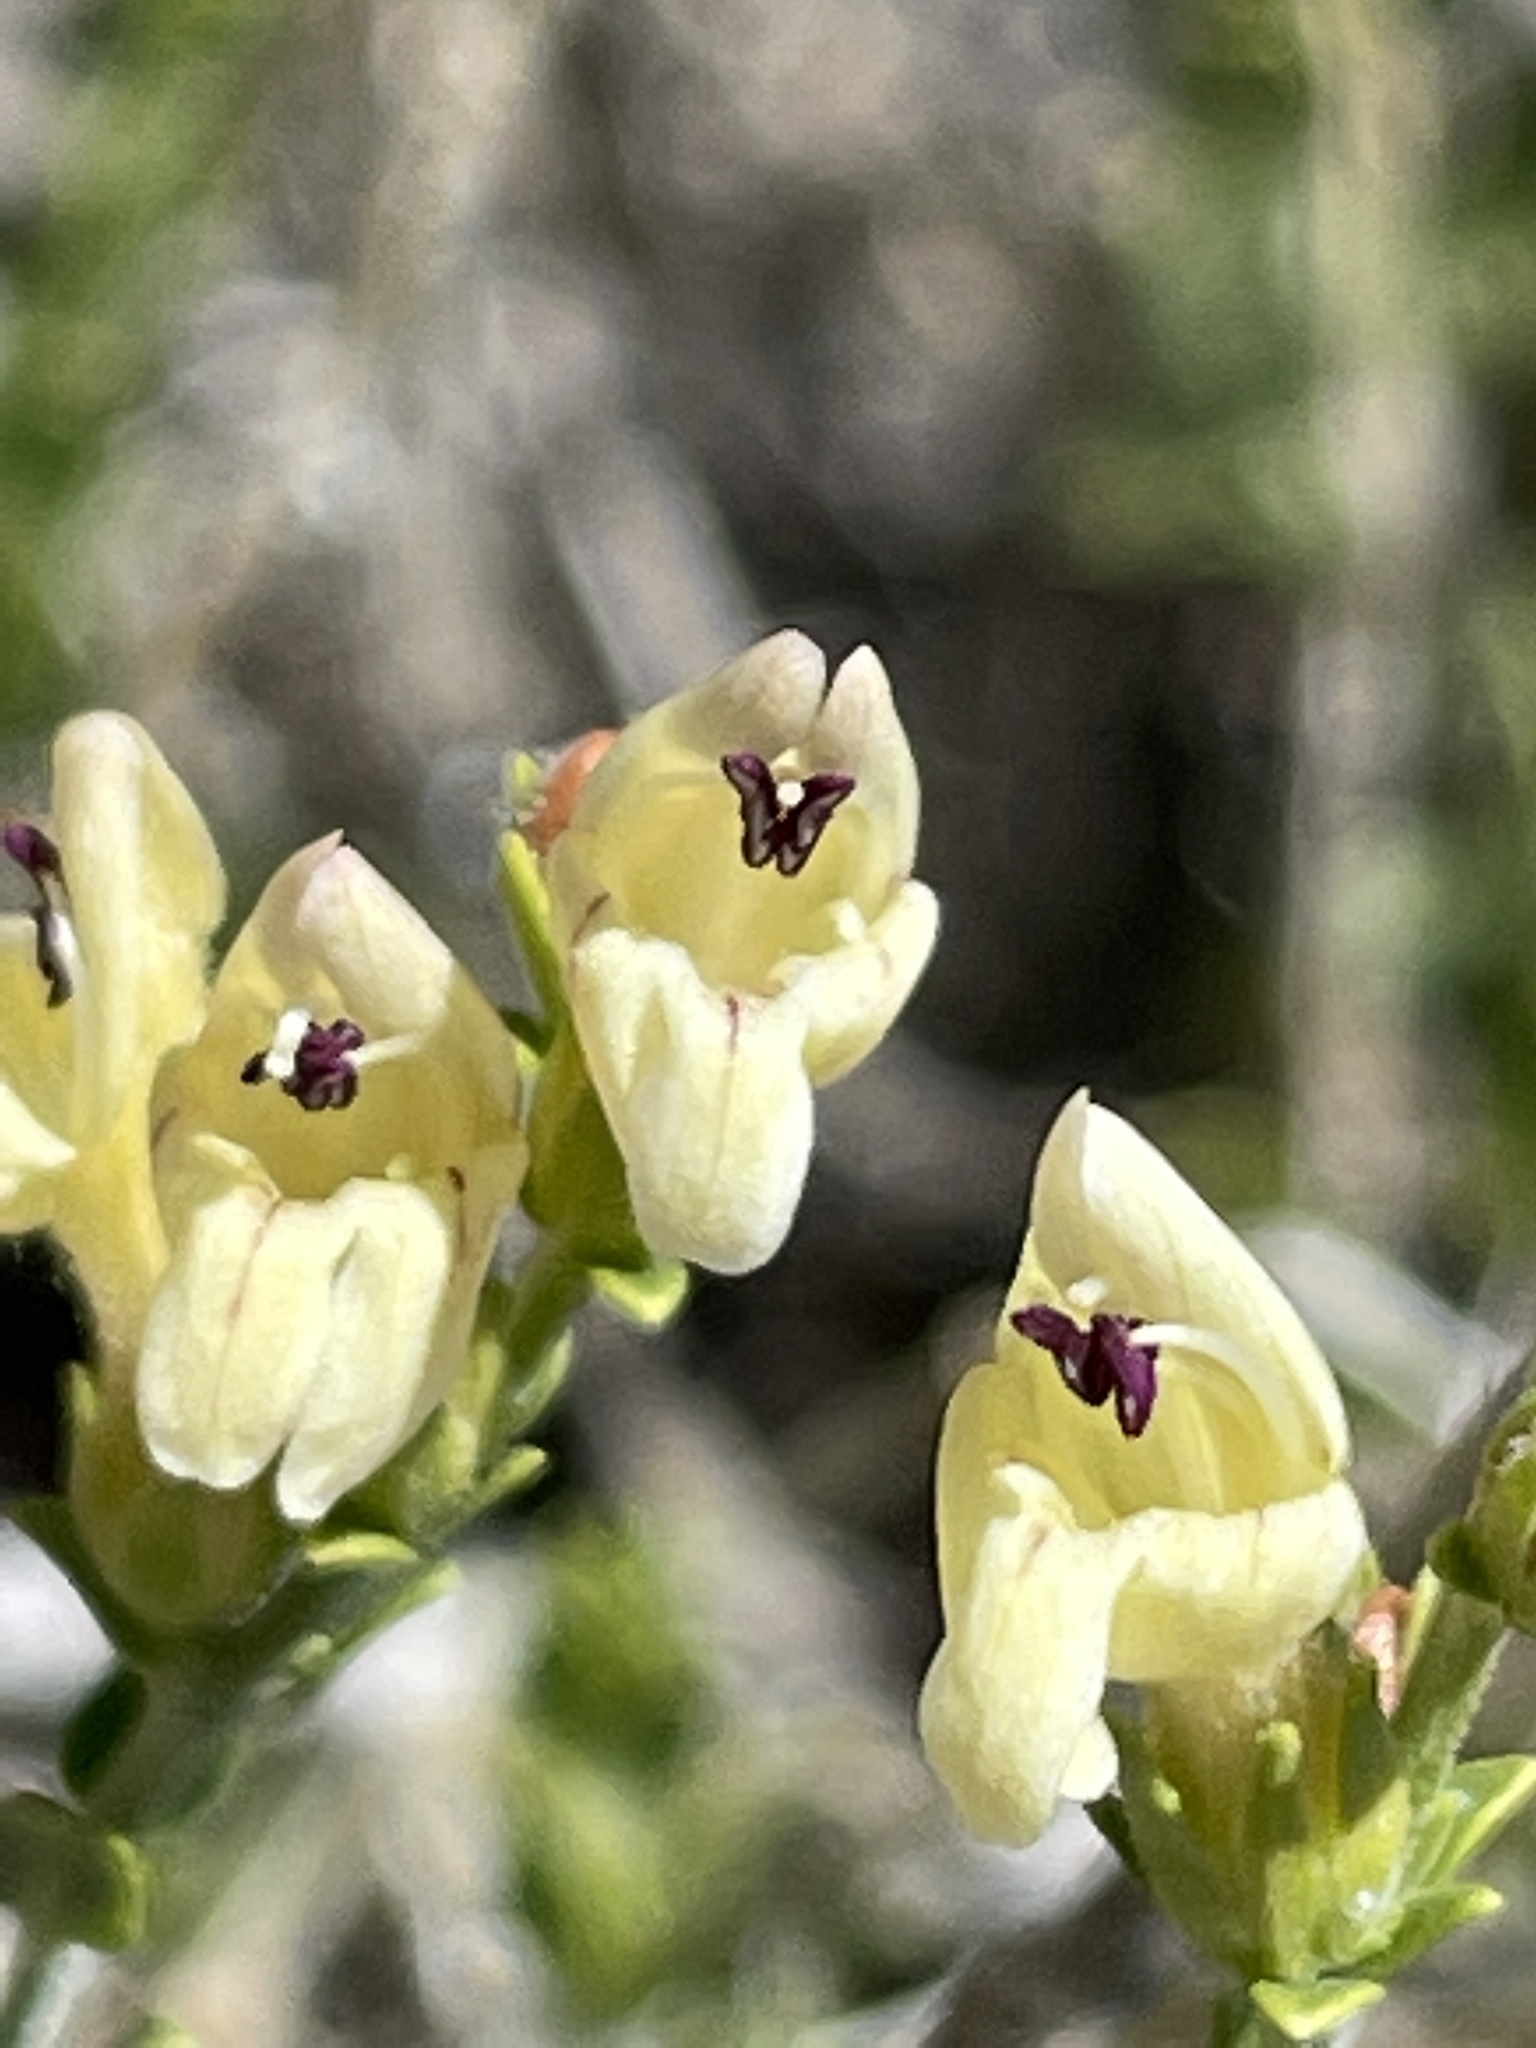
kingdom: Plantae
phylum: Tracheophyta
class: Magnoliopsida
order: Lamiales
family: Plantaginaceae
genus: Keckiella
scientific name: Keckiella rothrockii
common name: Rothrock's keckiella
